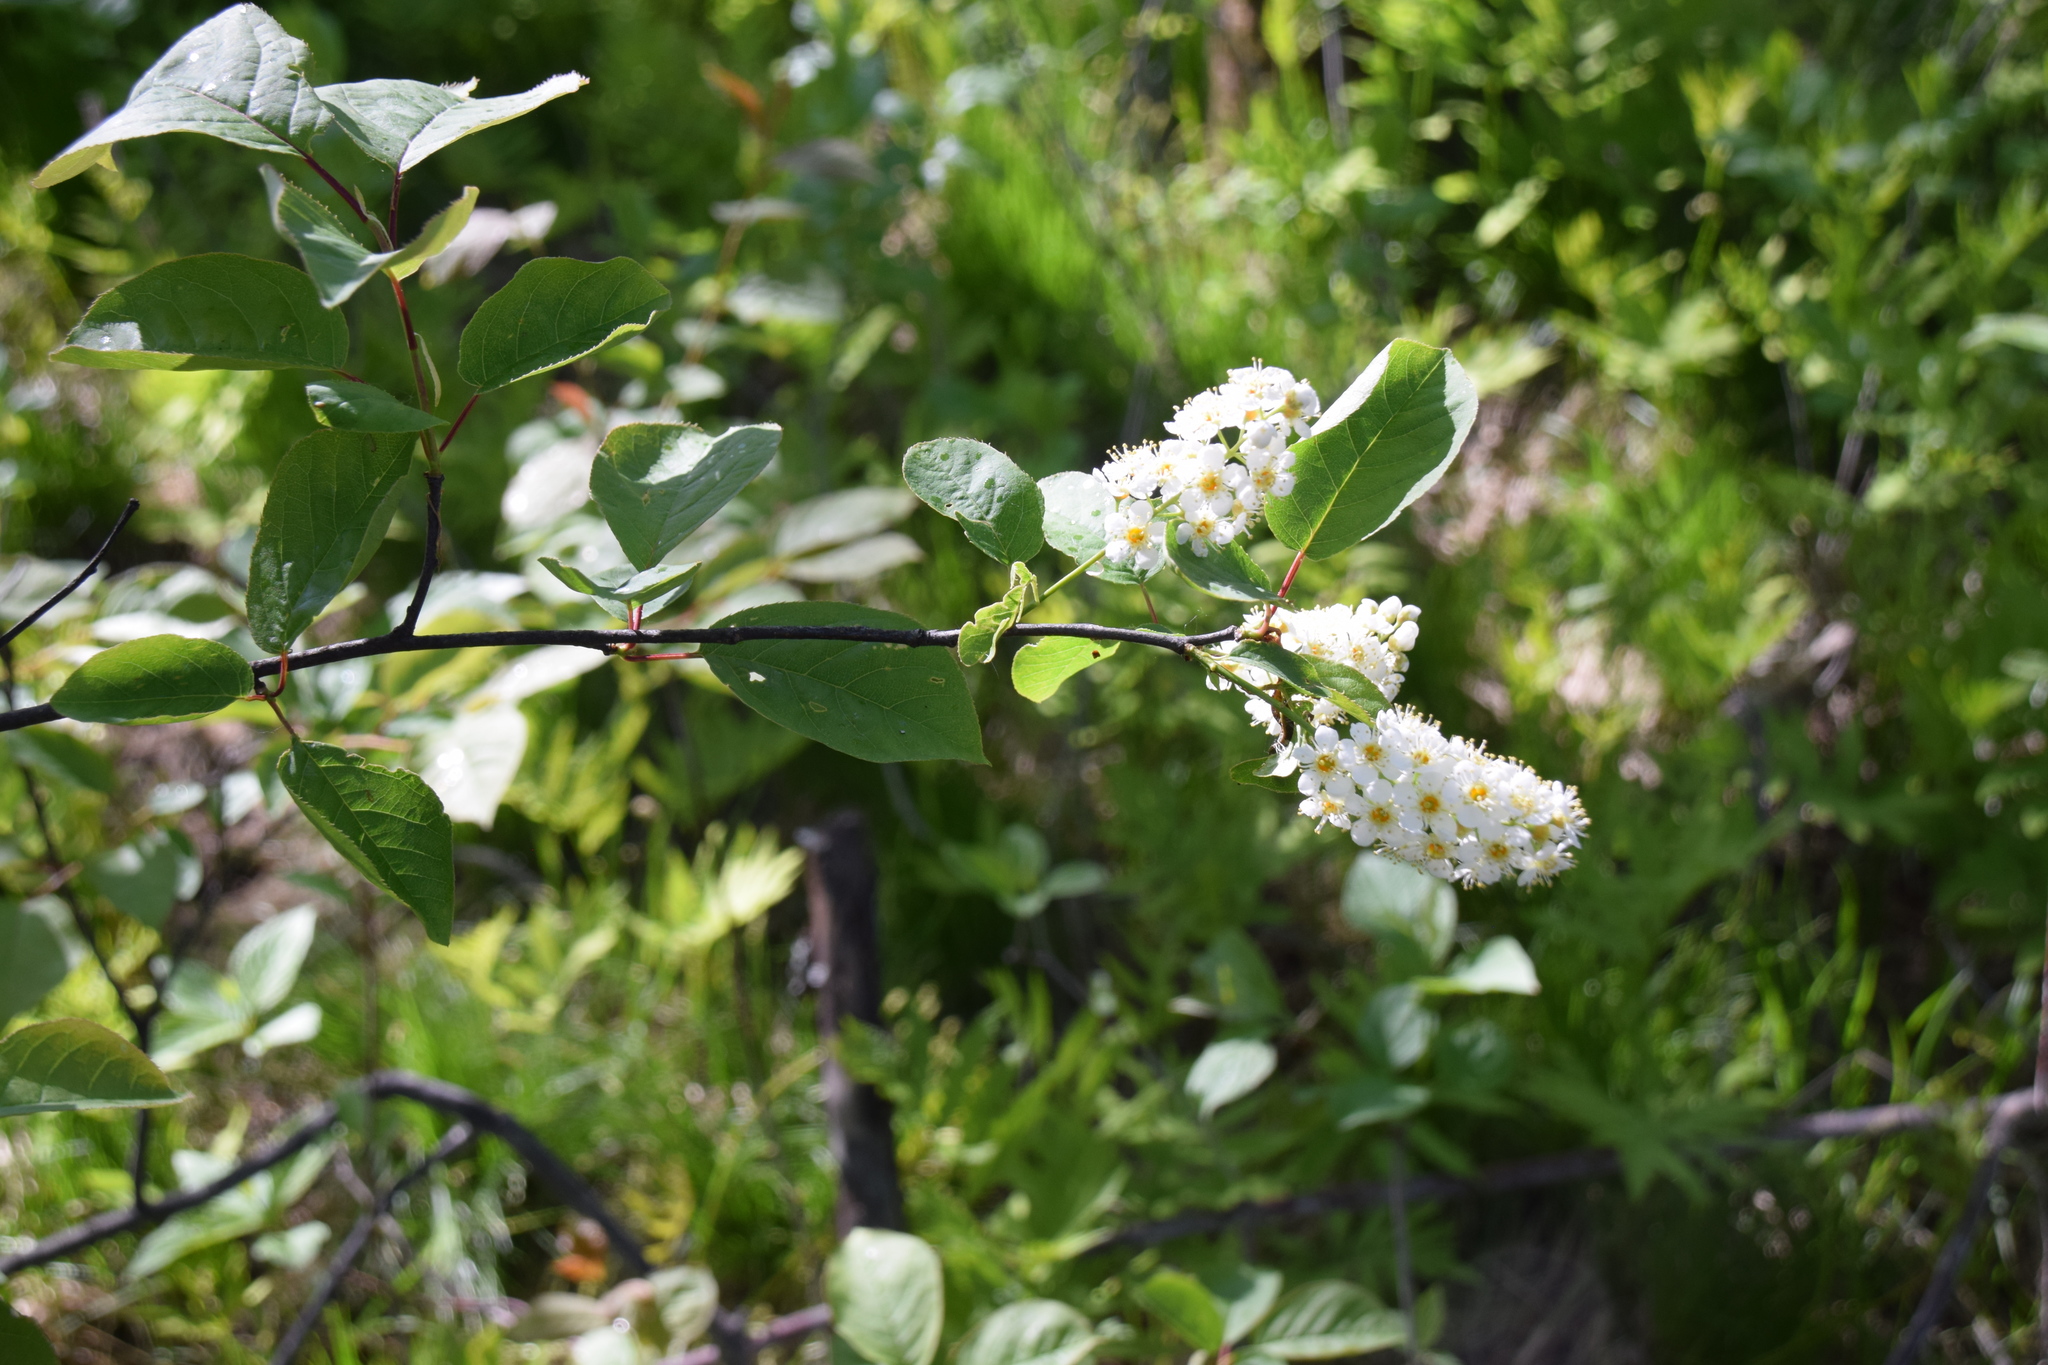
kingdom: Plantae
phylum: Tracheophyta
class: Magnoliopsida
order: Rosales
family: Rosaceae
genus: Prunus
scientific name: Prunus virginiana
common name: Chokecherry
